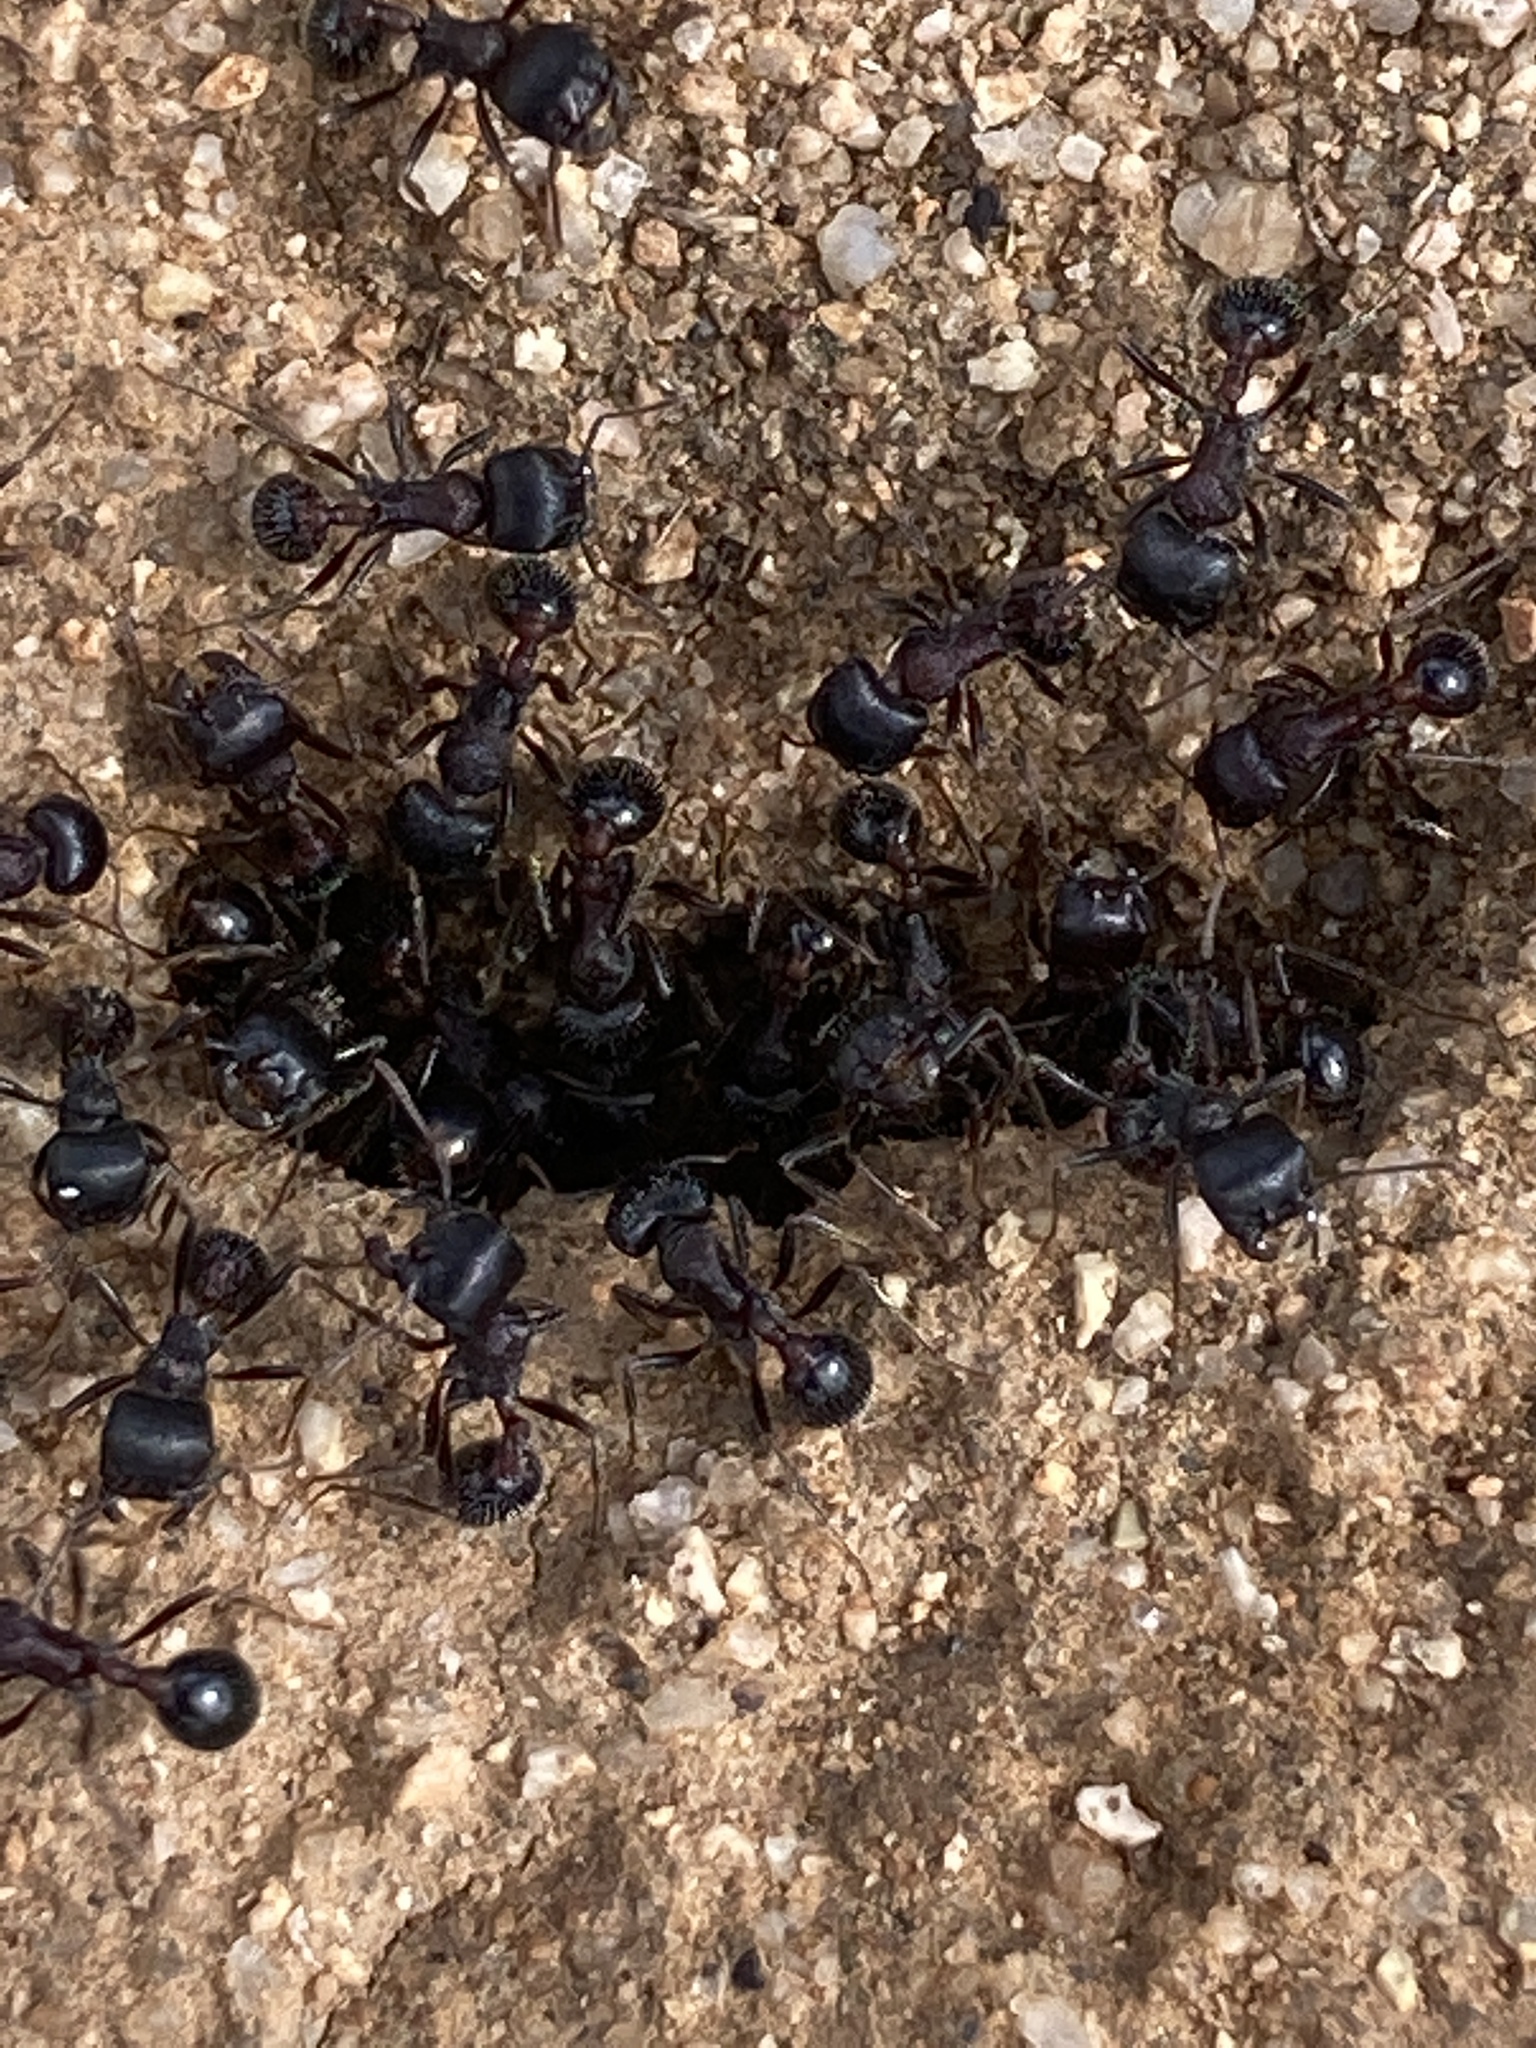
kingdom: Animalia
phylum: Arthropoda
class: Insecta
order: Hymenoptera
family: Formicidae
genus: Pogonomyrmex
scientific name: Pogonomyrmex rugosus
